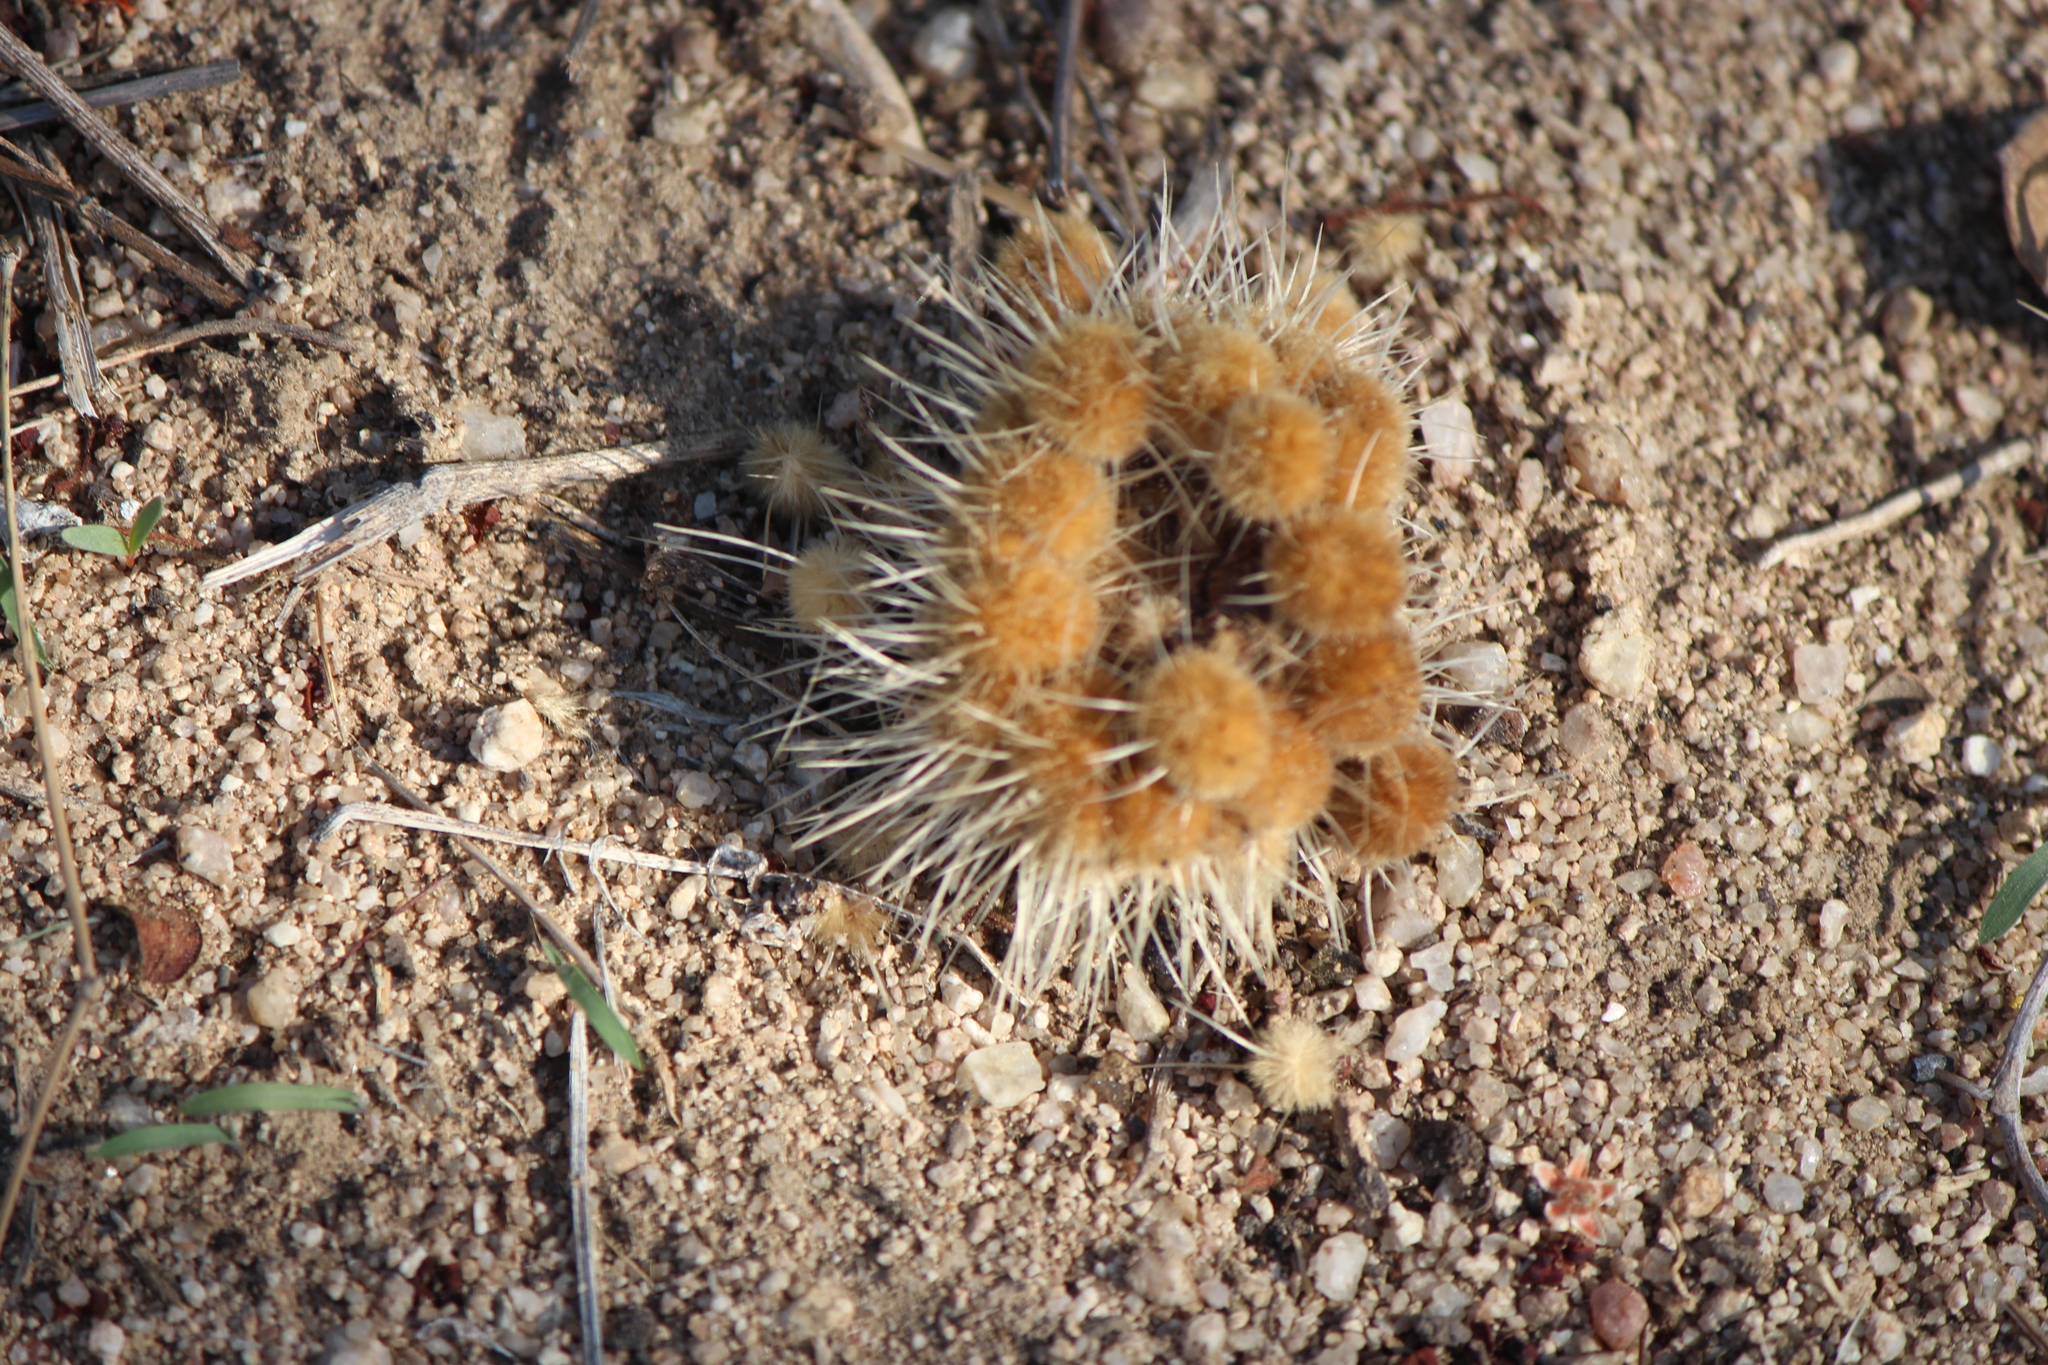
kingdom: Plantae
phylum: Tracheophyta
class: Magnoliopsida
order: Caryophyllales
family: Cactaceae
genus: Pachycereus
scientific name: Pachycereus pringlei
